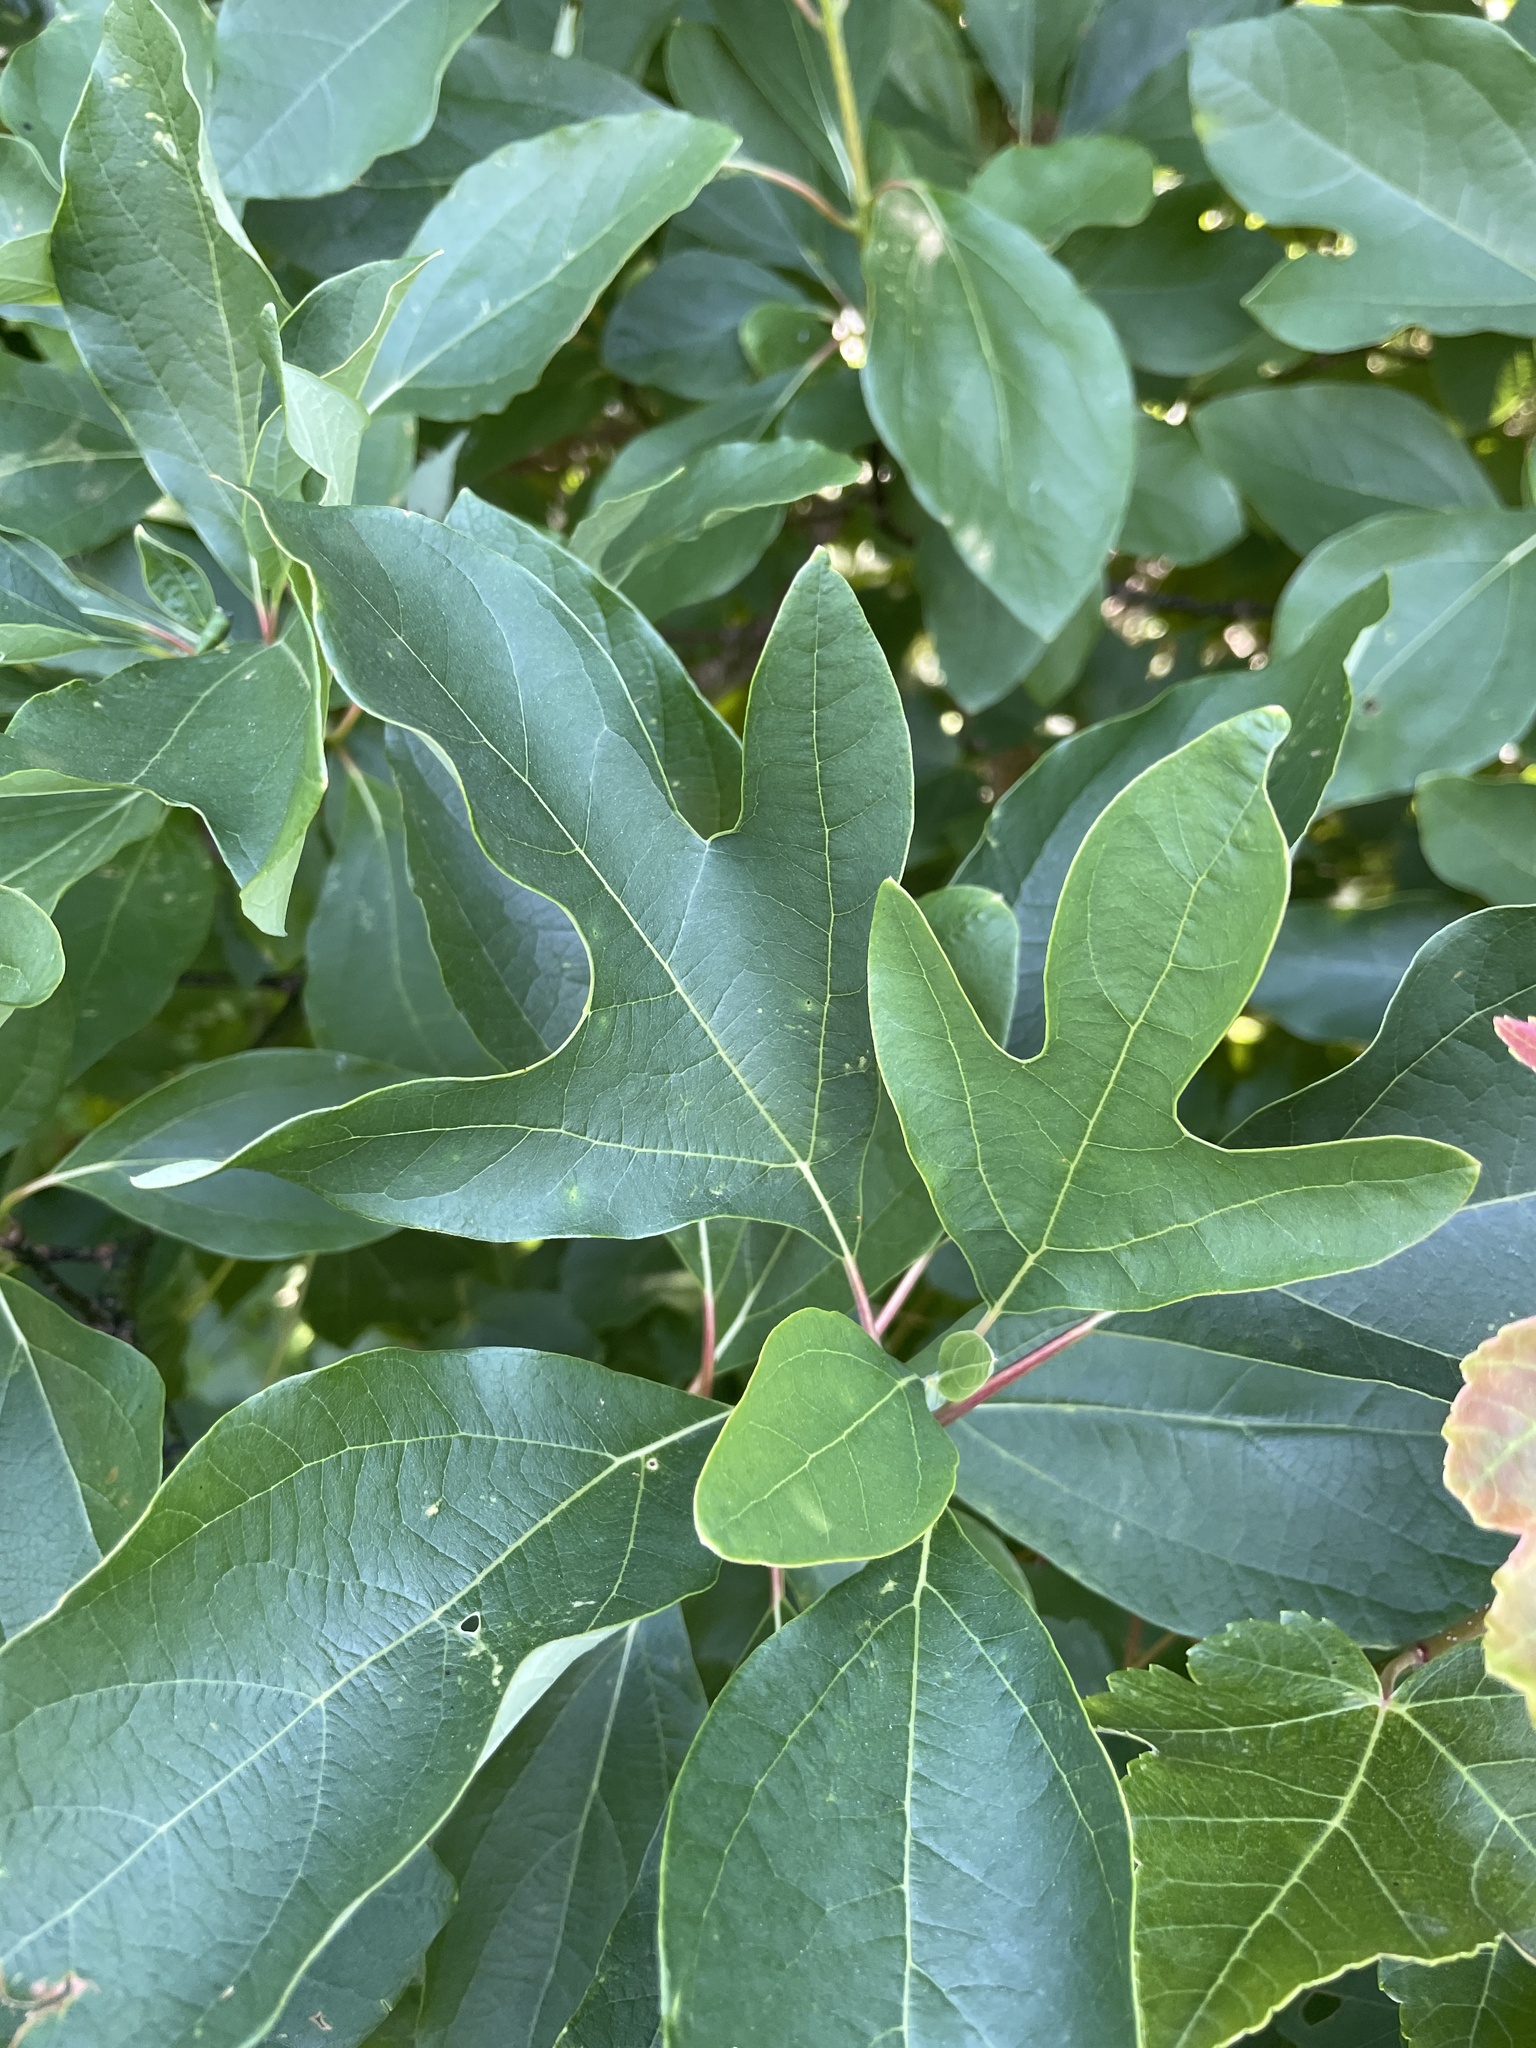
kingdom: Plantae
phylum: Tracheophyta
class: Magnoliopsida
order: Laurales
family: Lauraceae
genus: Sassafras
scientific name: Sassafras albidum
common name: Sassafras
